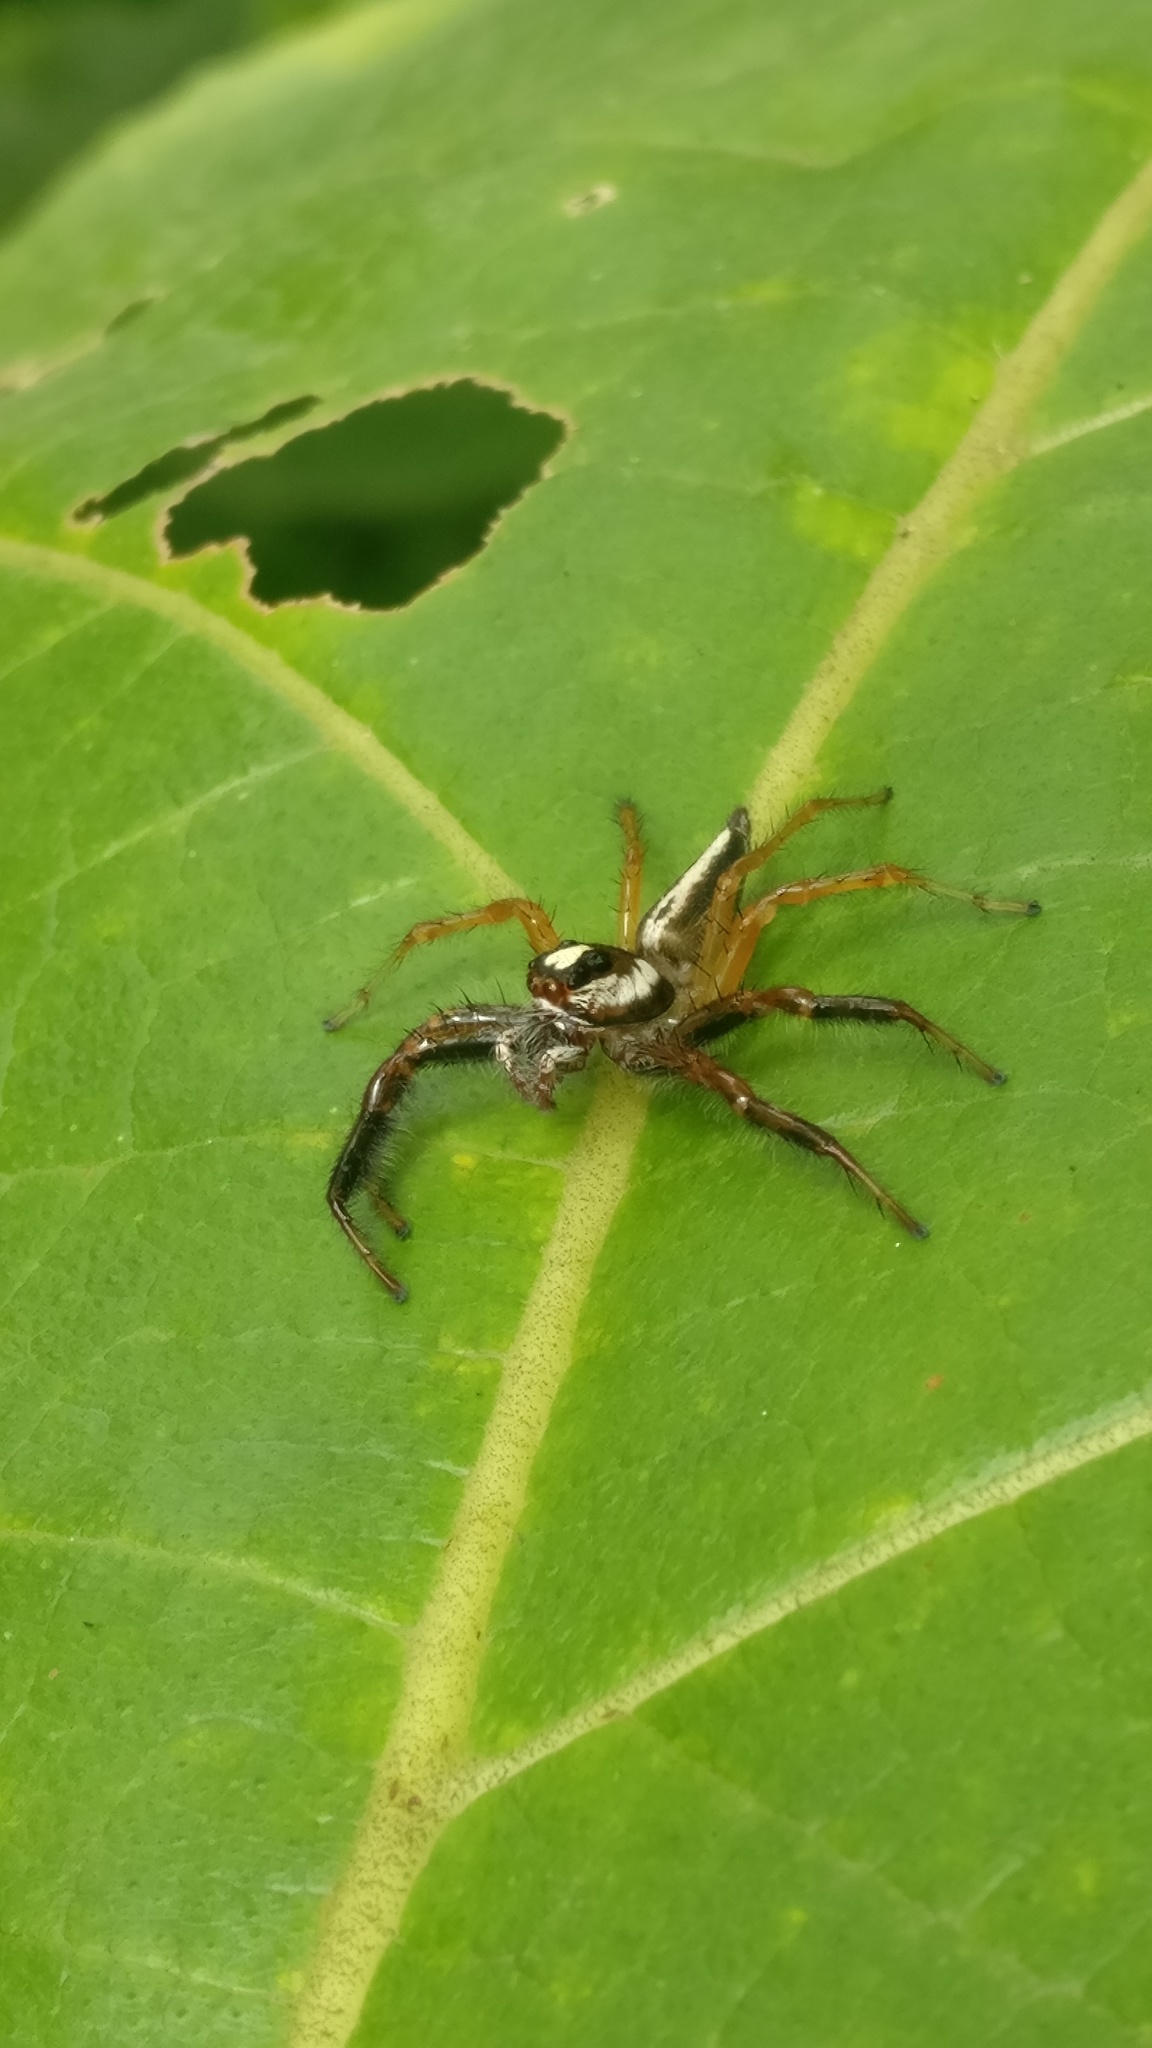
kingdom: Animalia
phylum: Arthropoda
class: Arachnida
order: Araneae
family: Salticidae
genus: Telamonia
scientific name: Telamonia dimidiata
